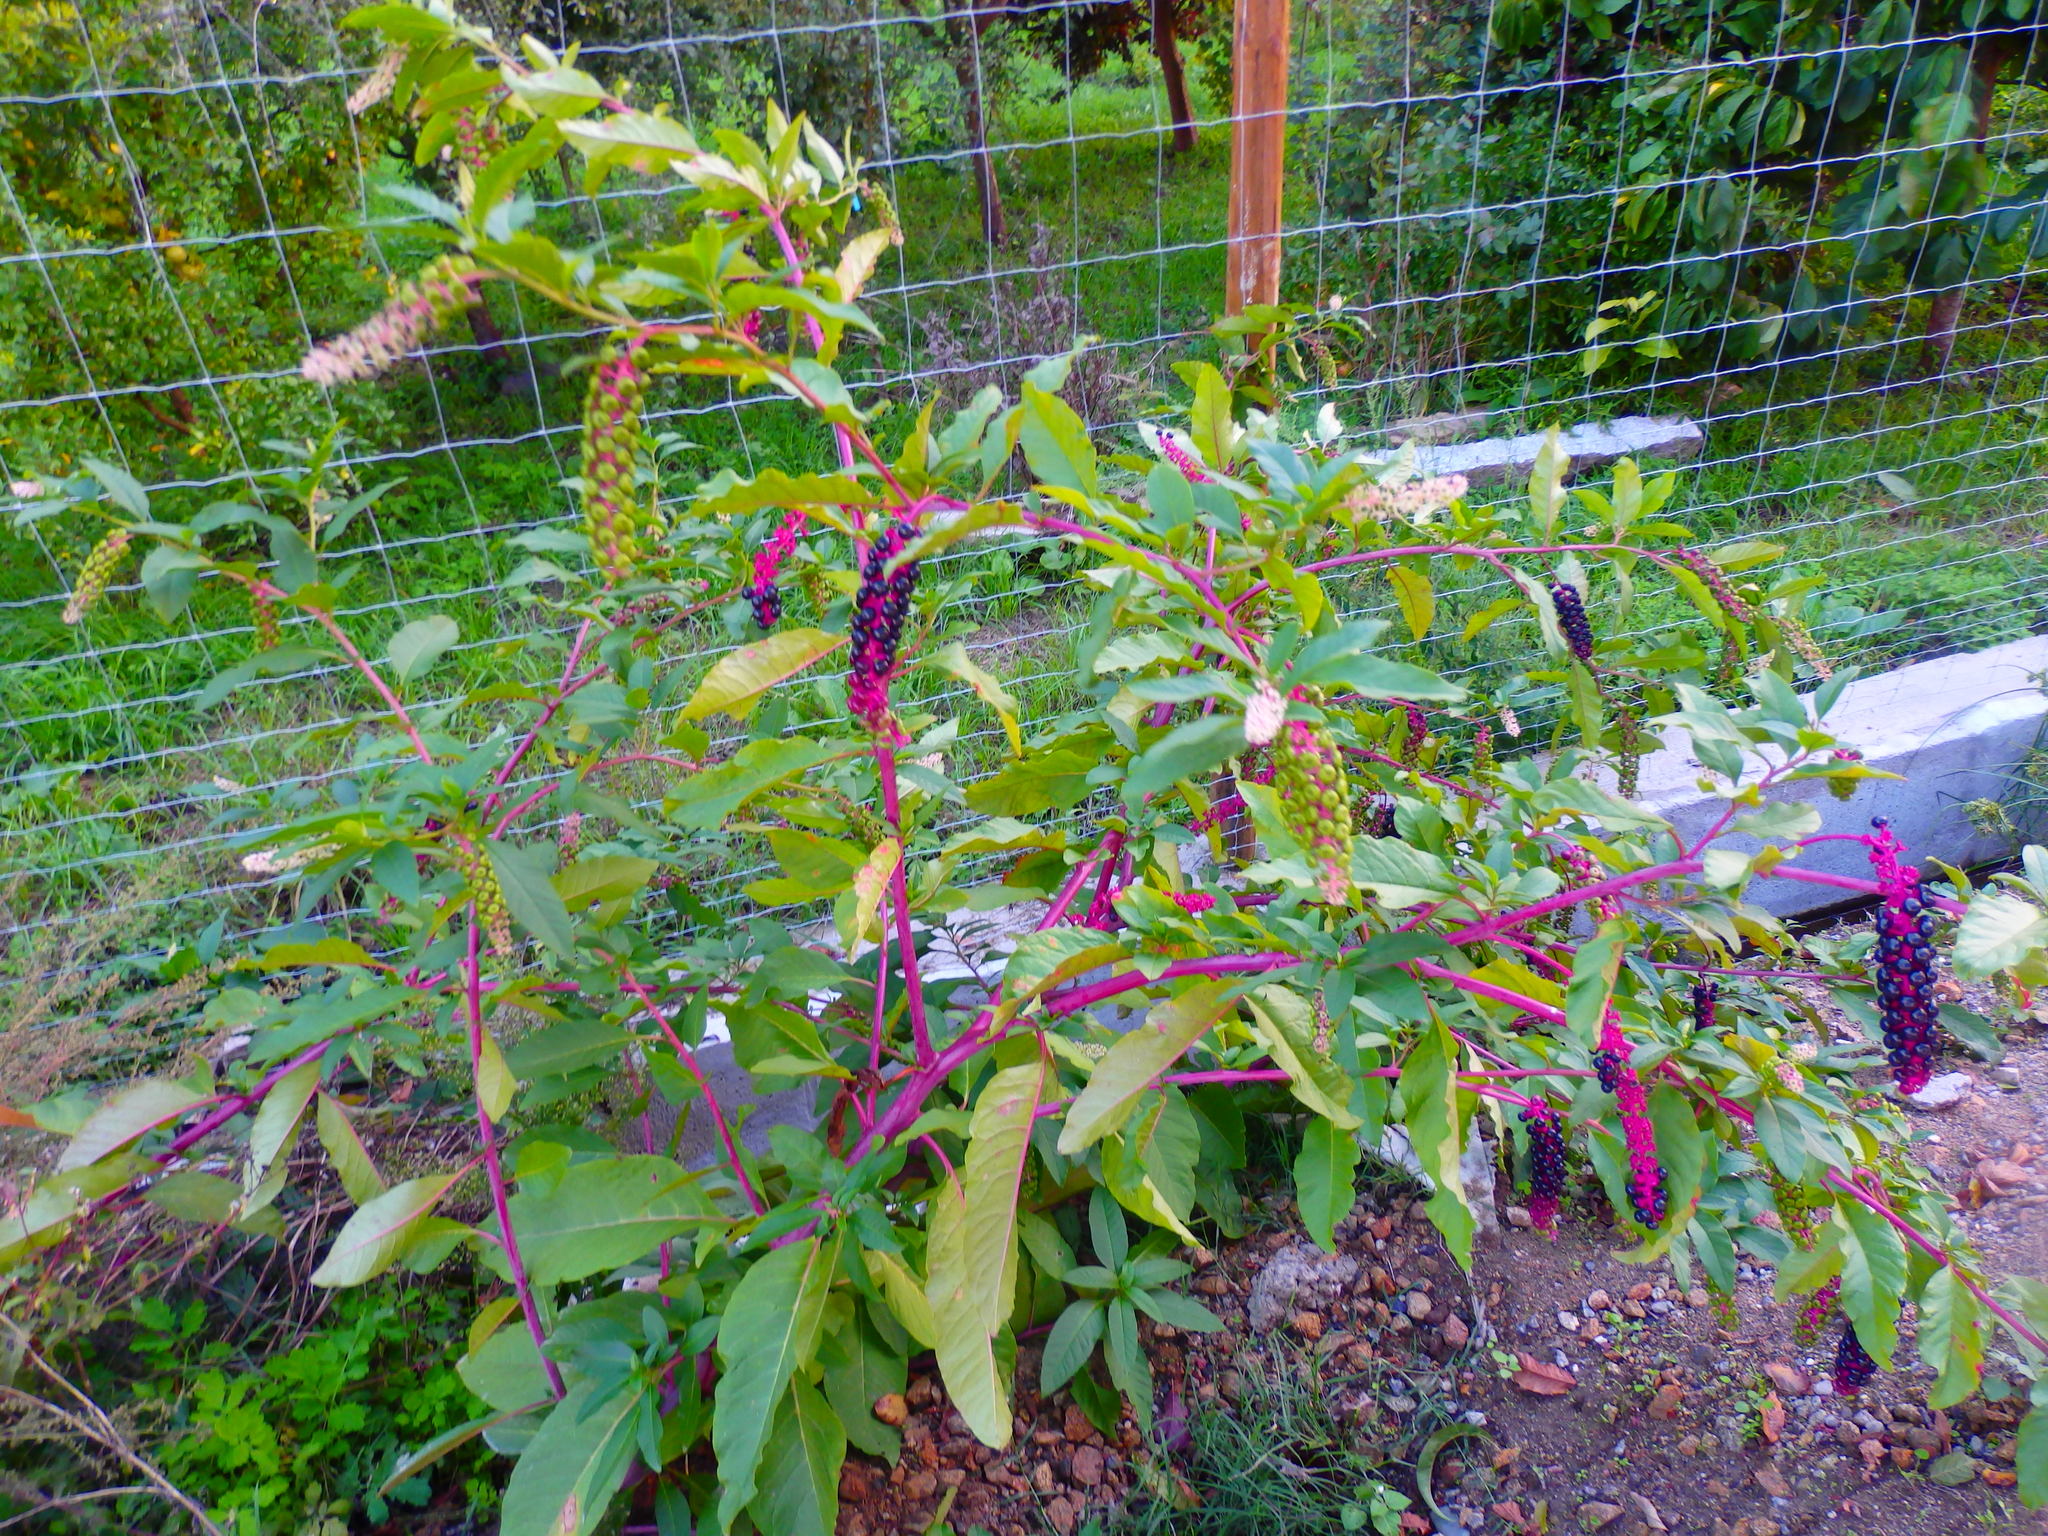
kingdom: Plantae
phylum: Tracheophyta
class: Magnoliopsida
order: Caryophyllales
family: Phytolaccaceae
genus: Phytolacca
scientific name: Phytolacca americana
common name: American pokeweed
